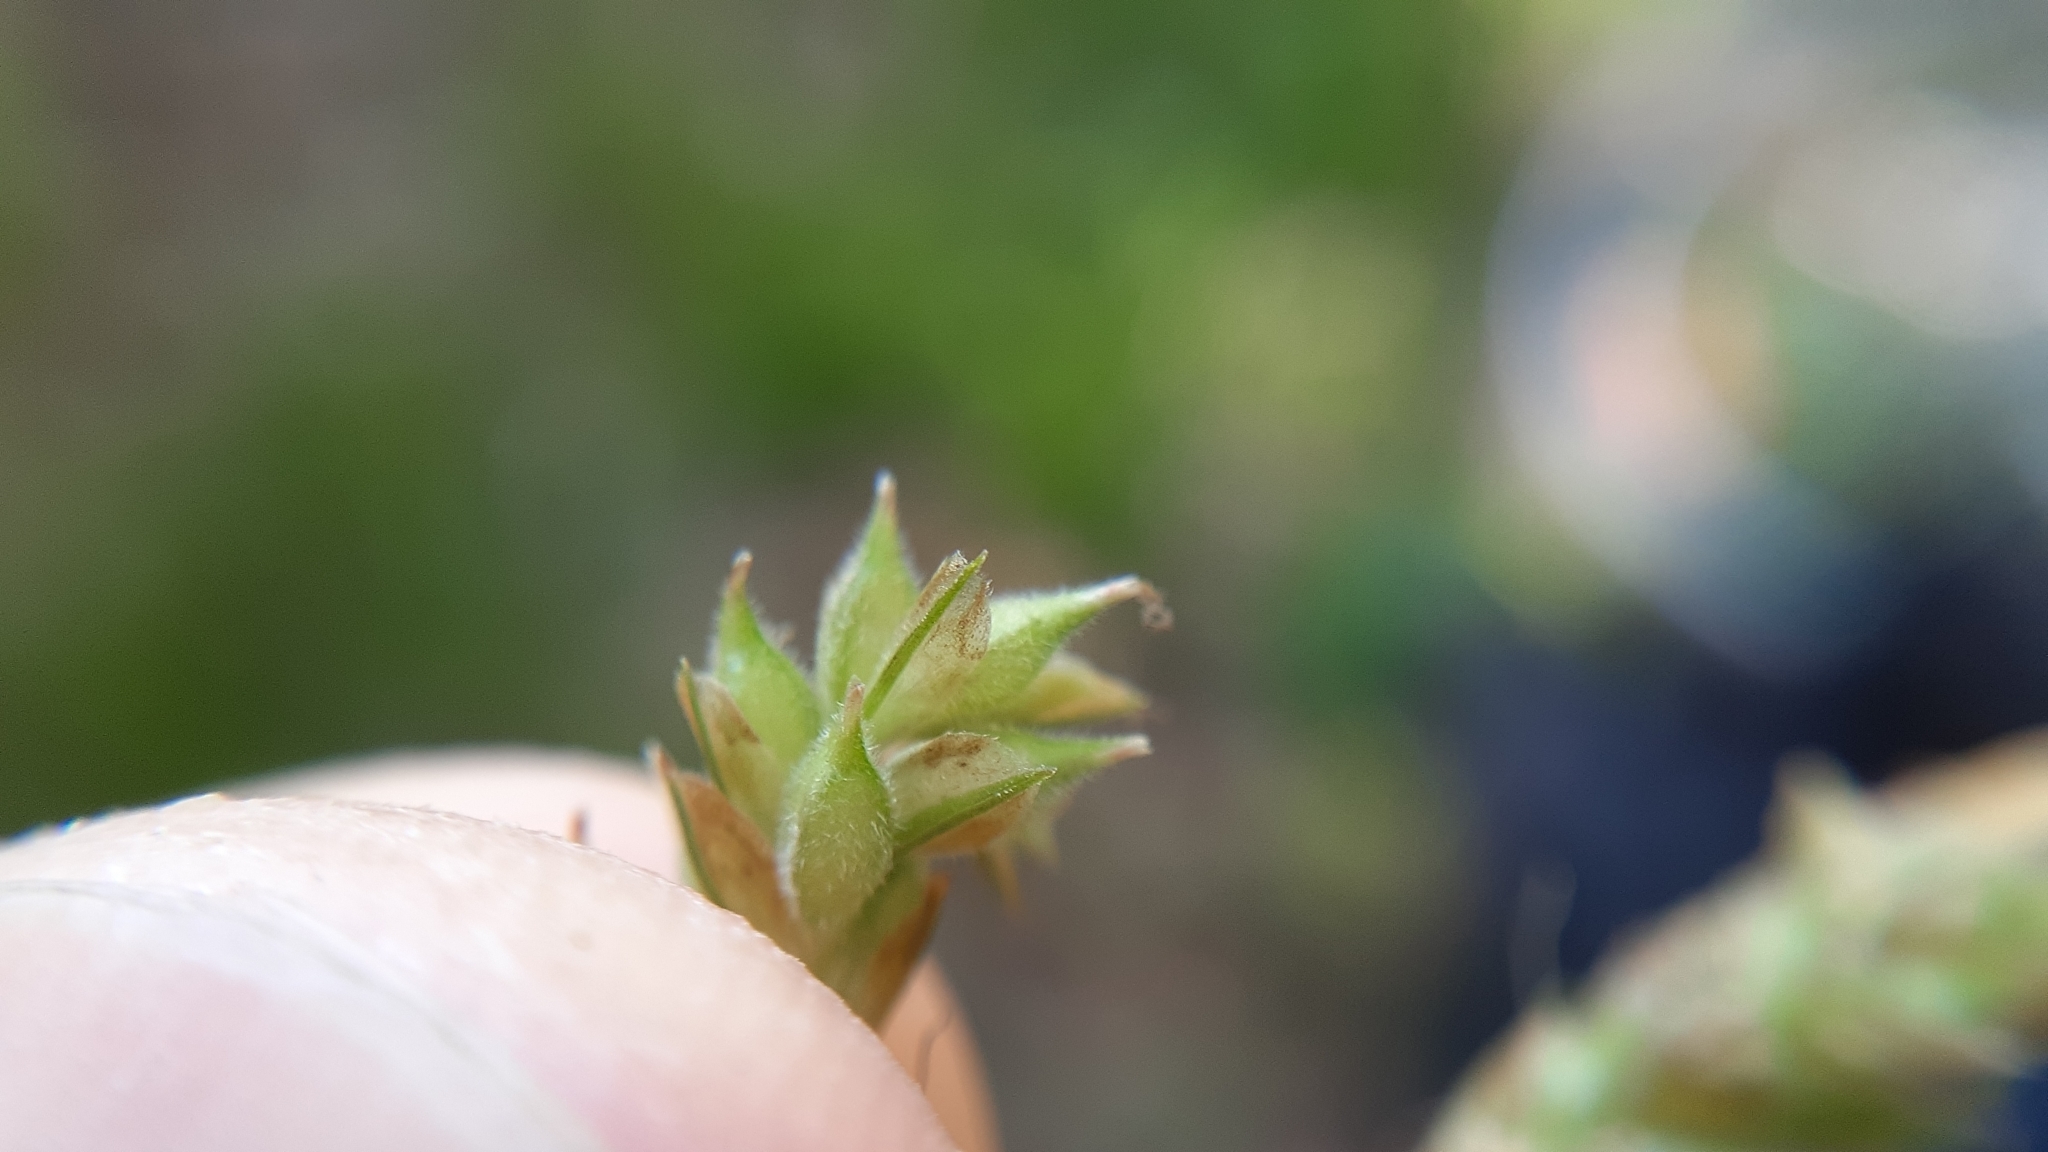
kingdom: Plantae
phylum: Tracheophyta
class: Liliopsida
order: Poales
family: Cyperaceae
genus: Carex
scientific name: Carex hirtifolia
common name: Hairy sedge
